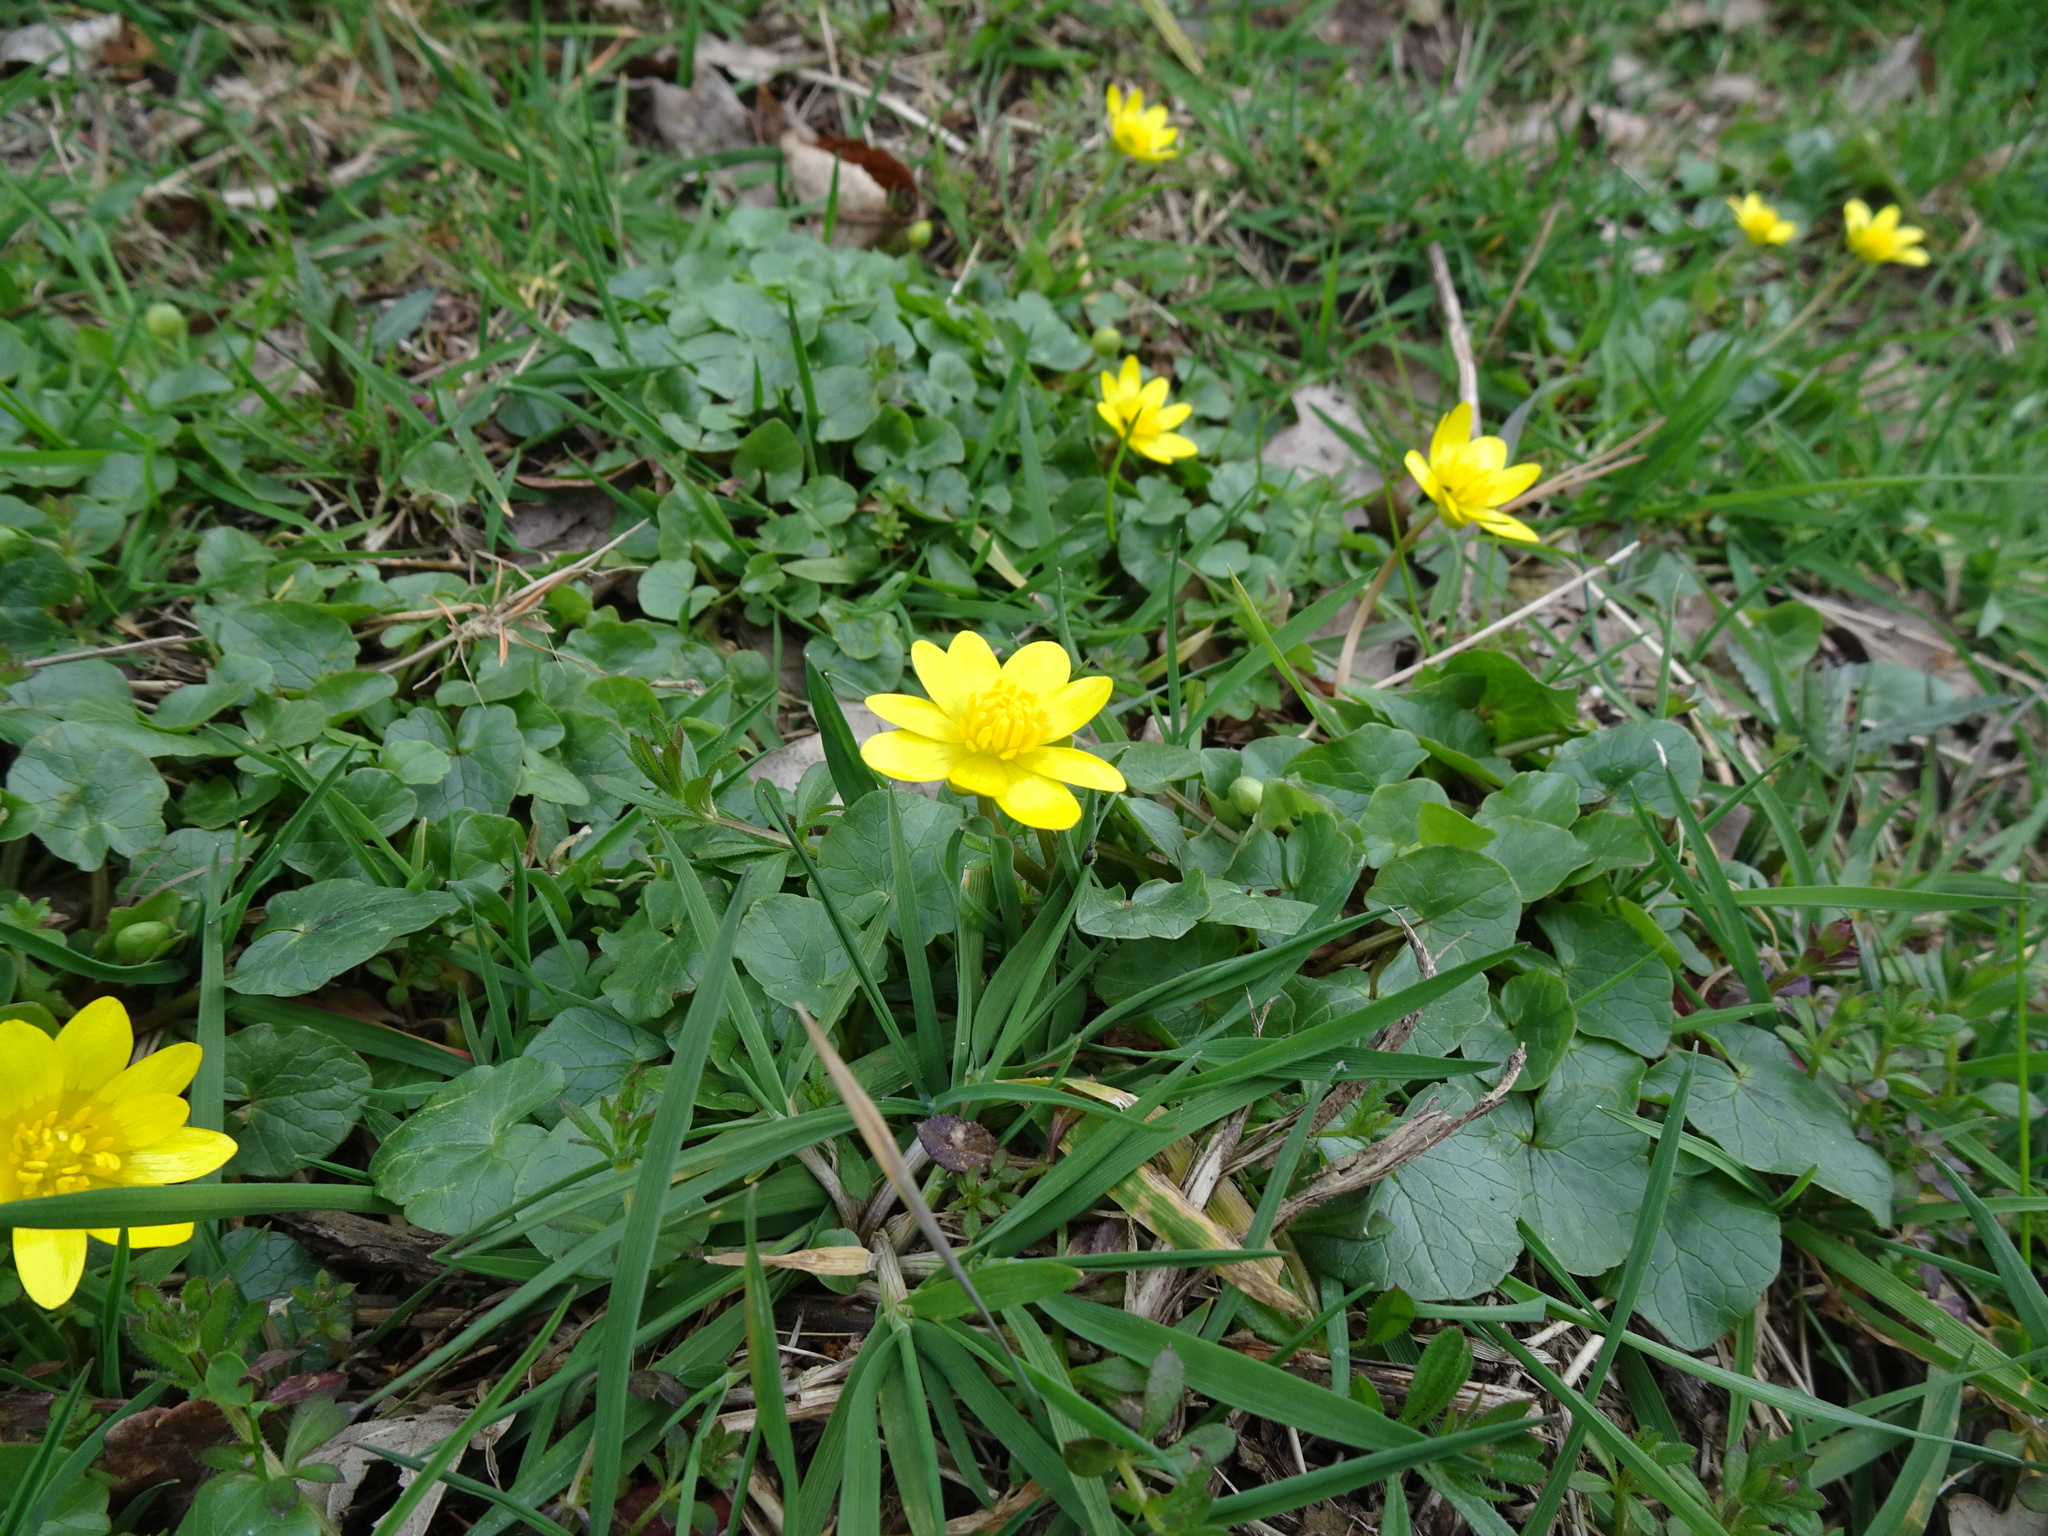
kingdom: Plantae
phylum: Tracheophyta
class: Magnoliopsida
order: Ranunculales
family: Ranunculaceae
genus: Ficaria
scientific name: Ficaria verna
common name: Lesser celandine
